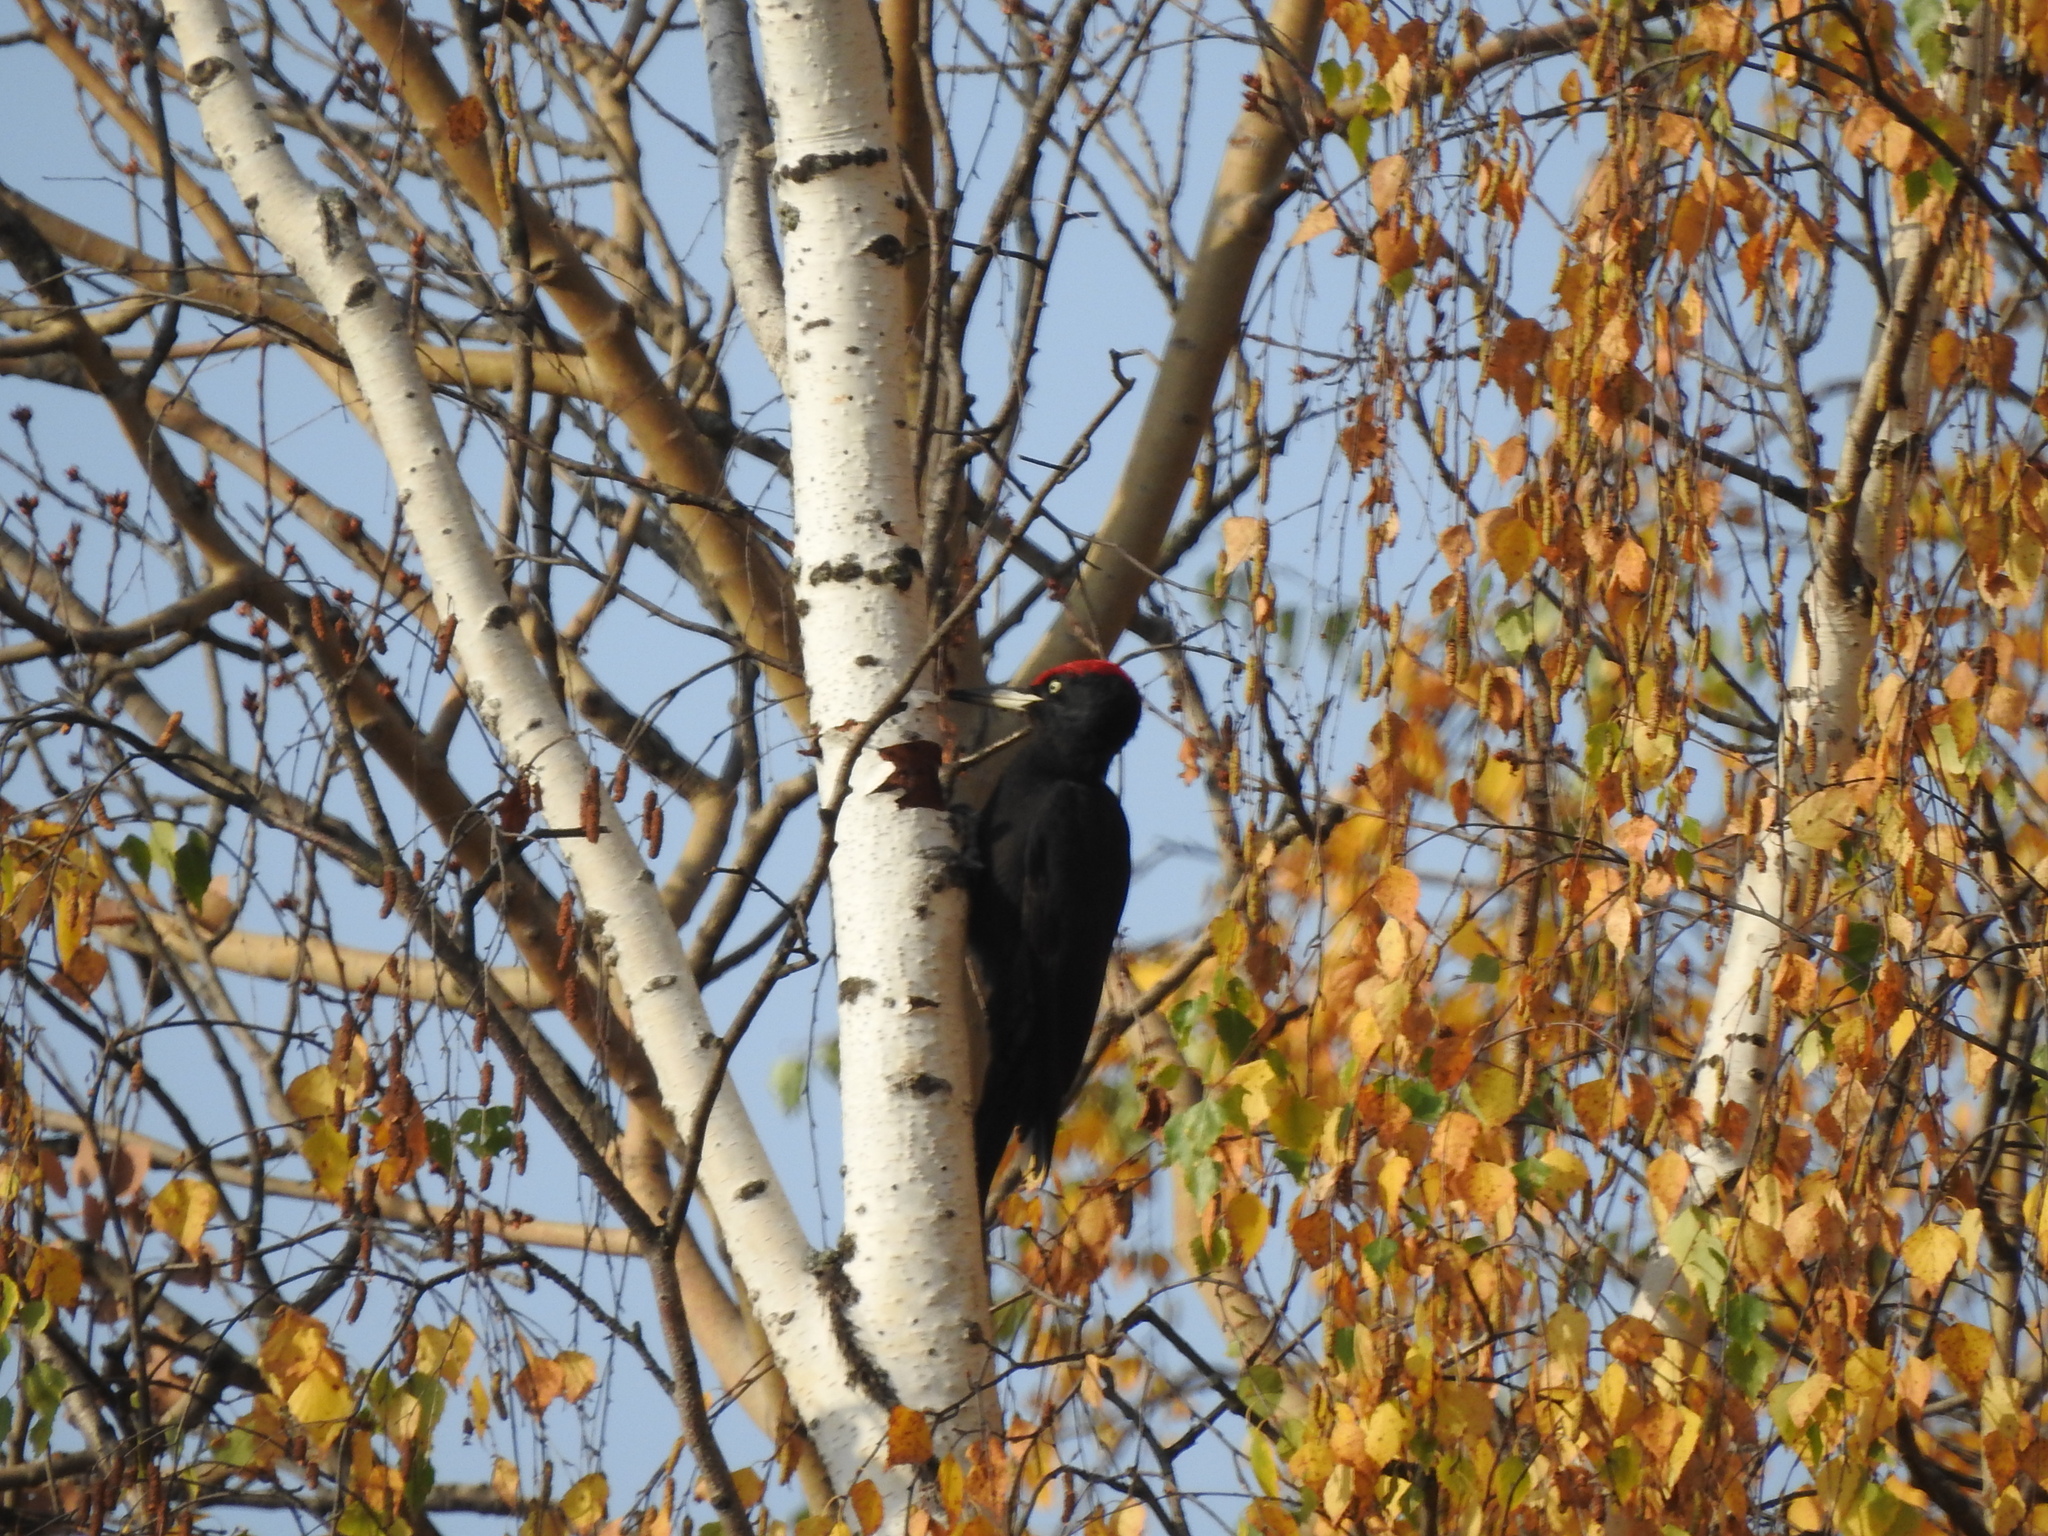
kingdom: Animalia
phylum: Chordata
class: Aves
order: Piciformes
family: Picidae
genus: Dryocopus
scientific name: Dryocopus martius
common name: Black woodpecker
